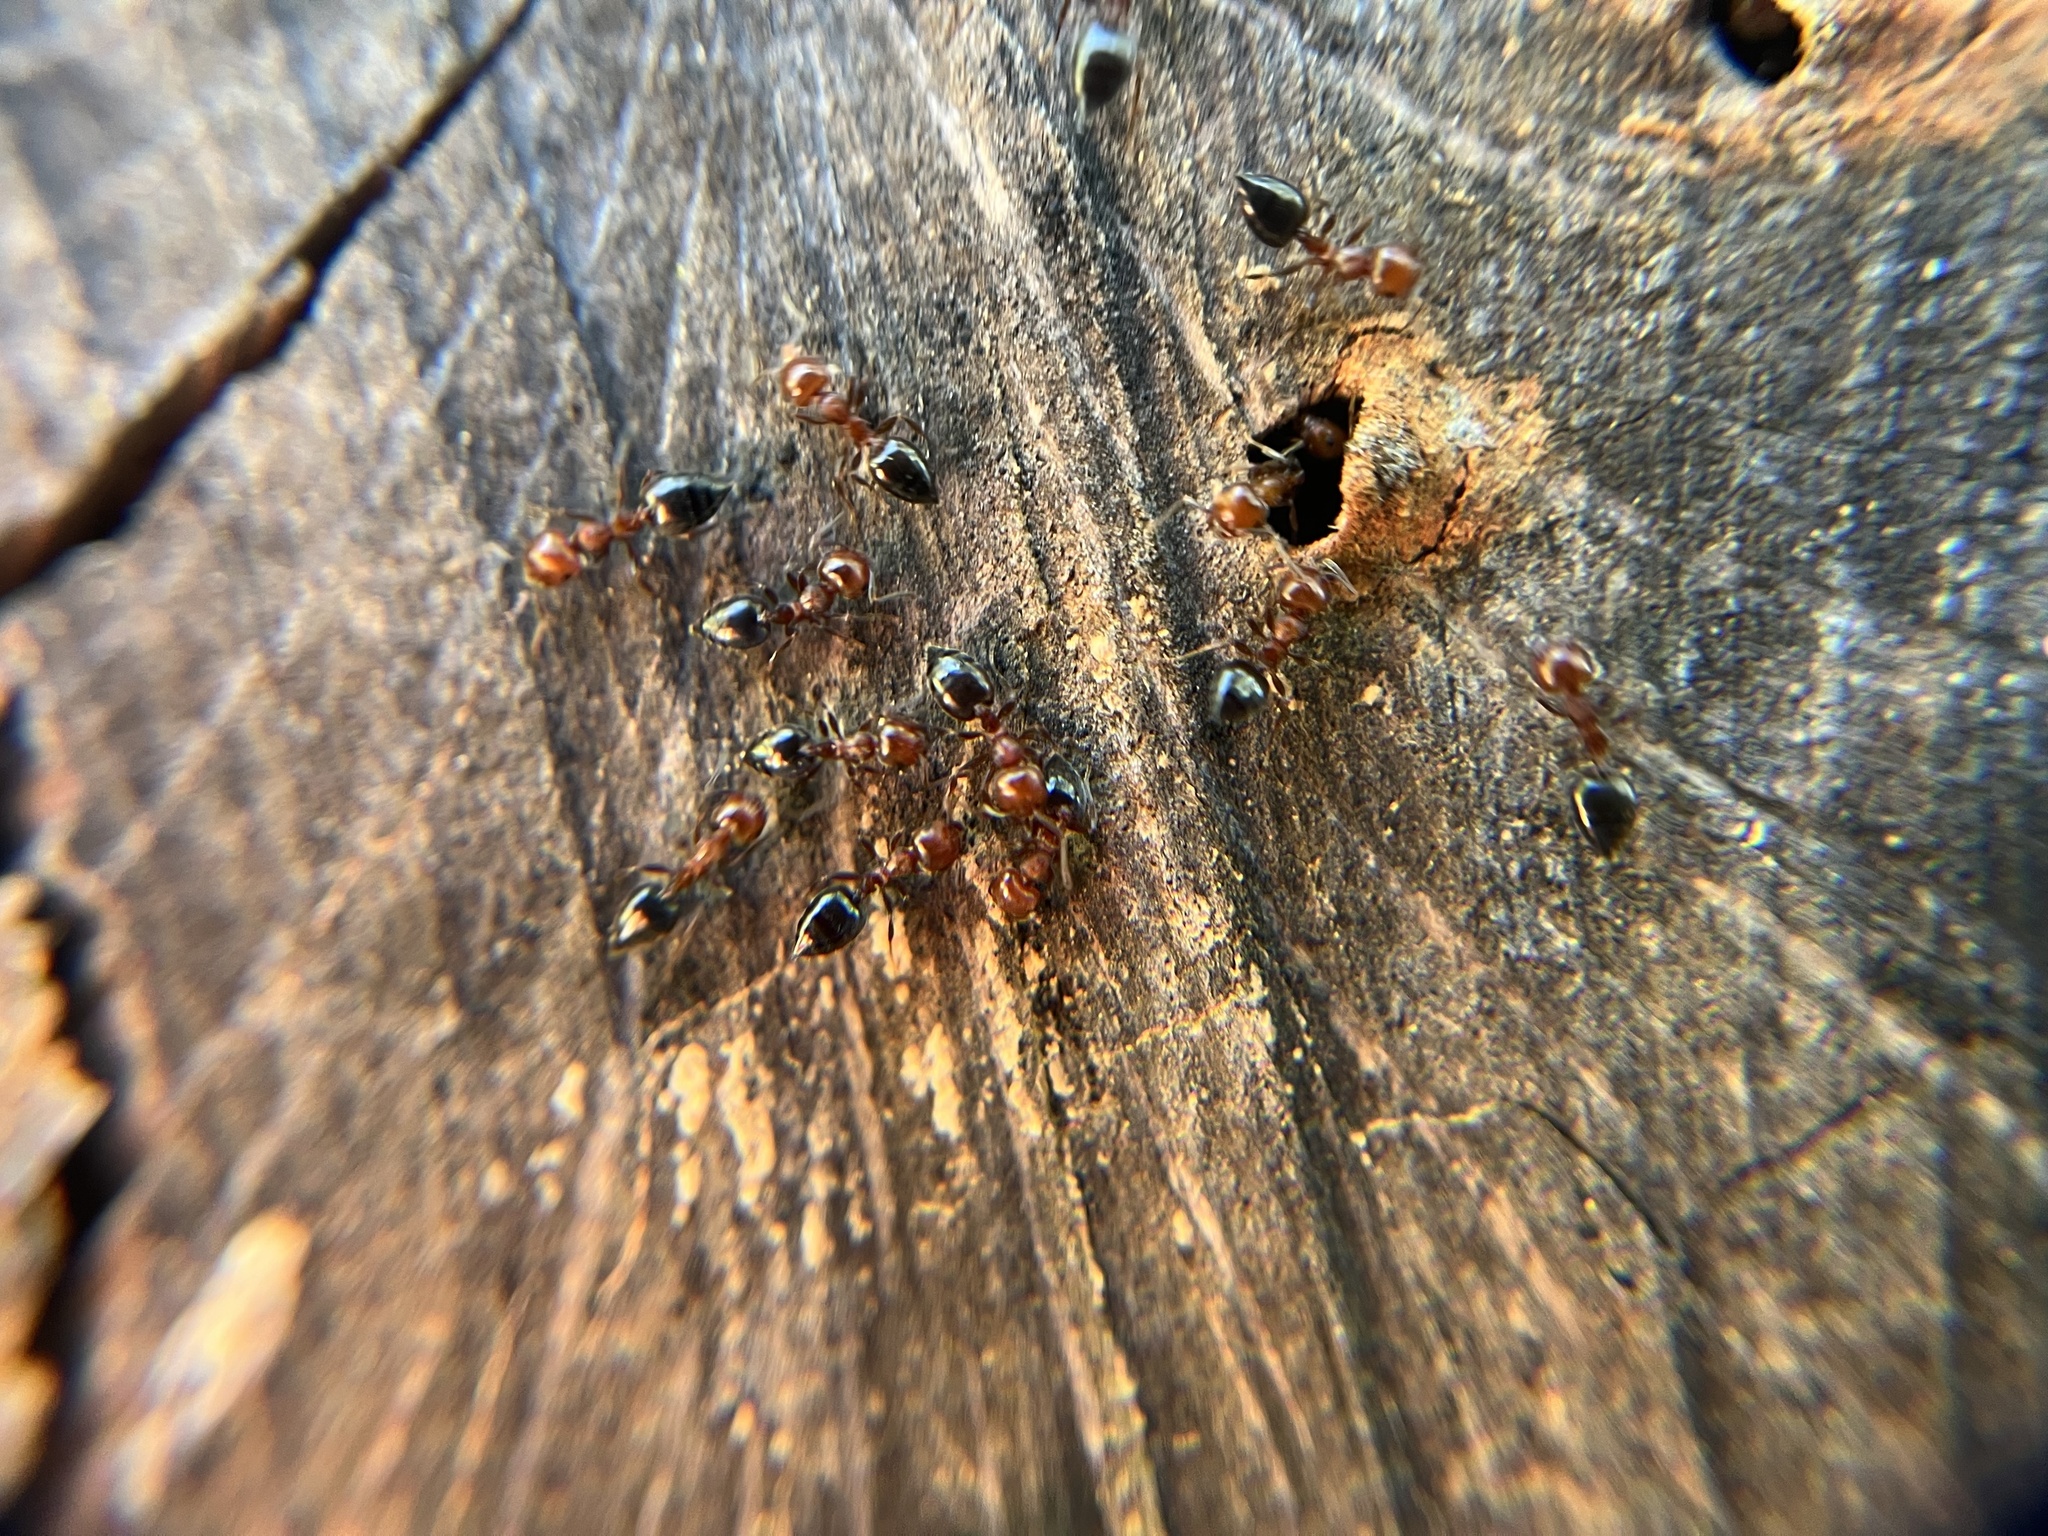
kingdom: Animalia
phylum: Arthropoda
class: Insecta
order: Hymenoptera
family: Formicidae
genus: Crematogaster
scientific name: Crematogaster schmidti
